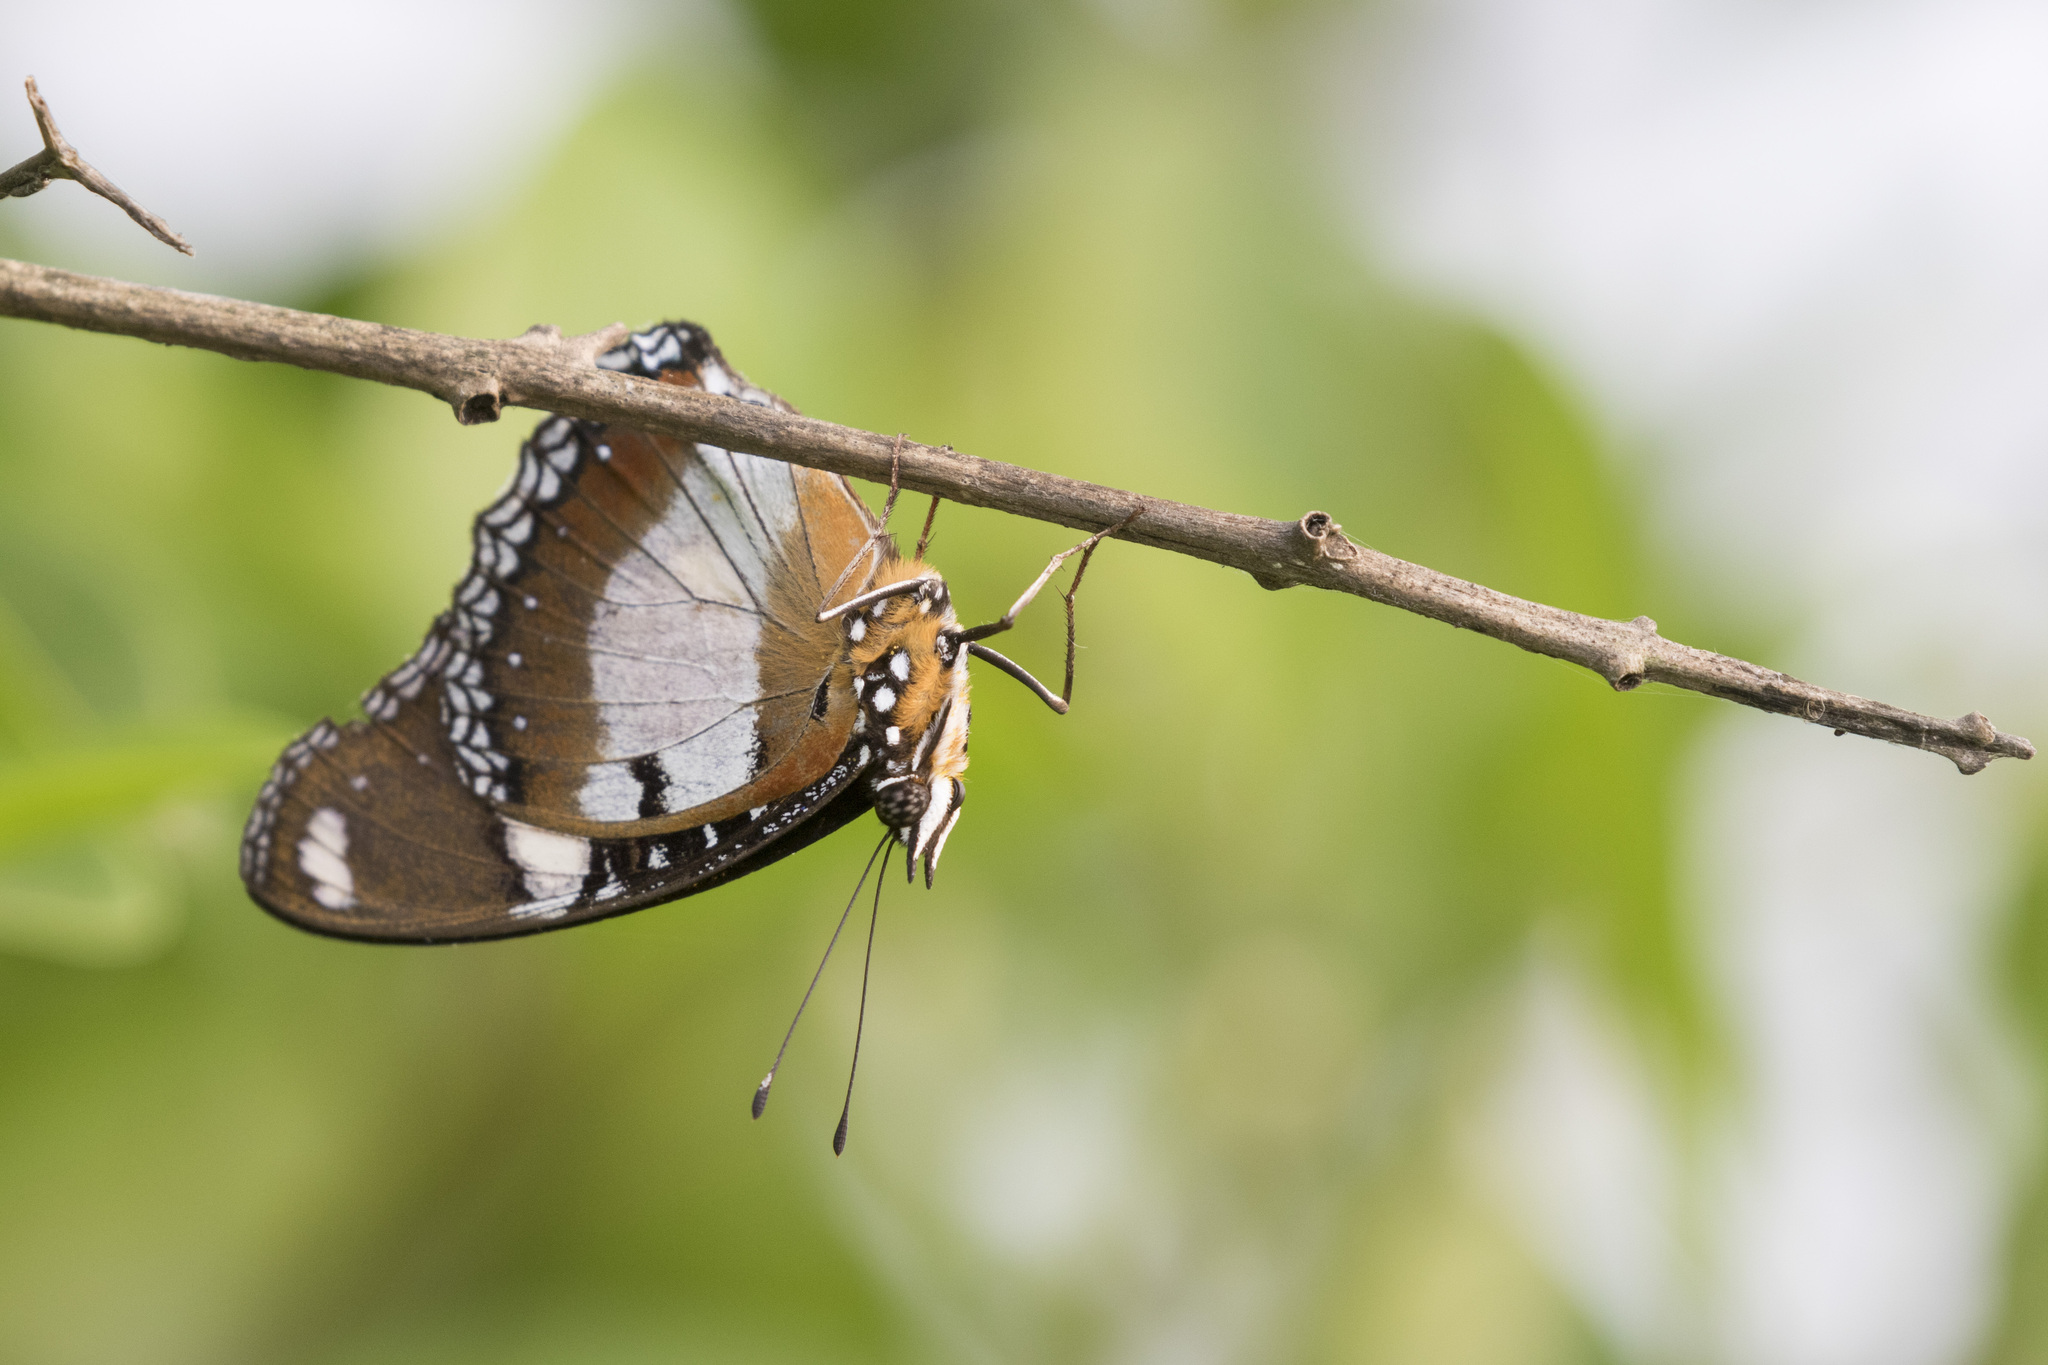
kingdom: Animalia
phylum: Arthropoda
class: Insecta
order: Lepidoptera
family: Nymphalidae
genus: Hypolimnas
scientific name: Hypolimnas misippus
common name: False plain tiger
